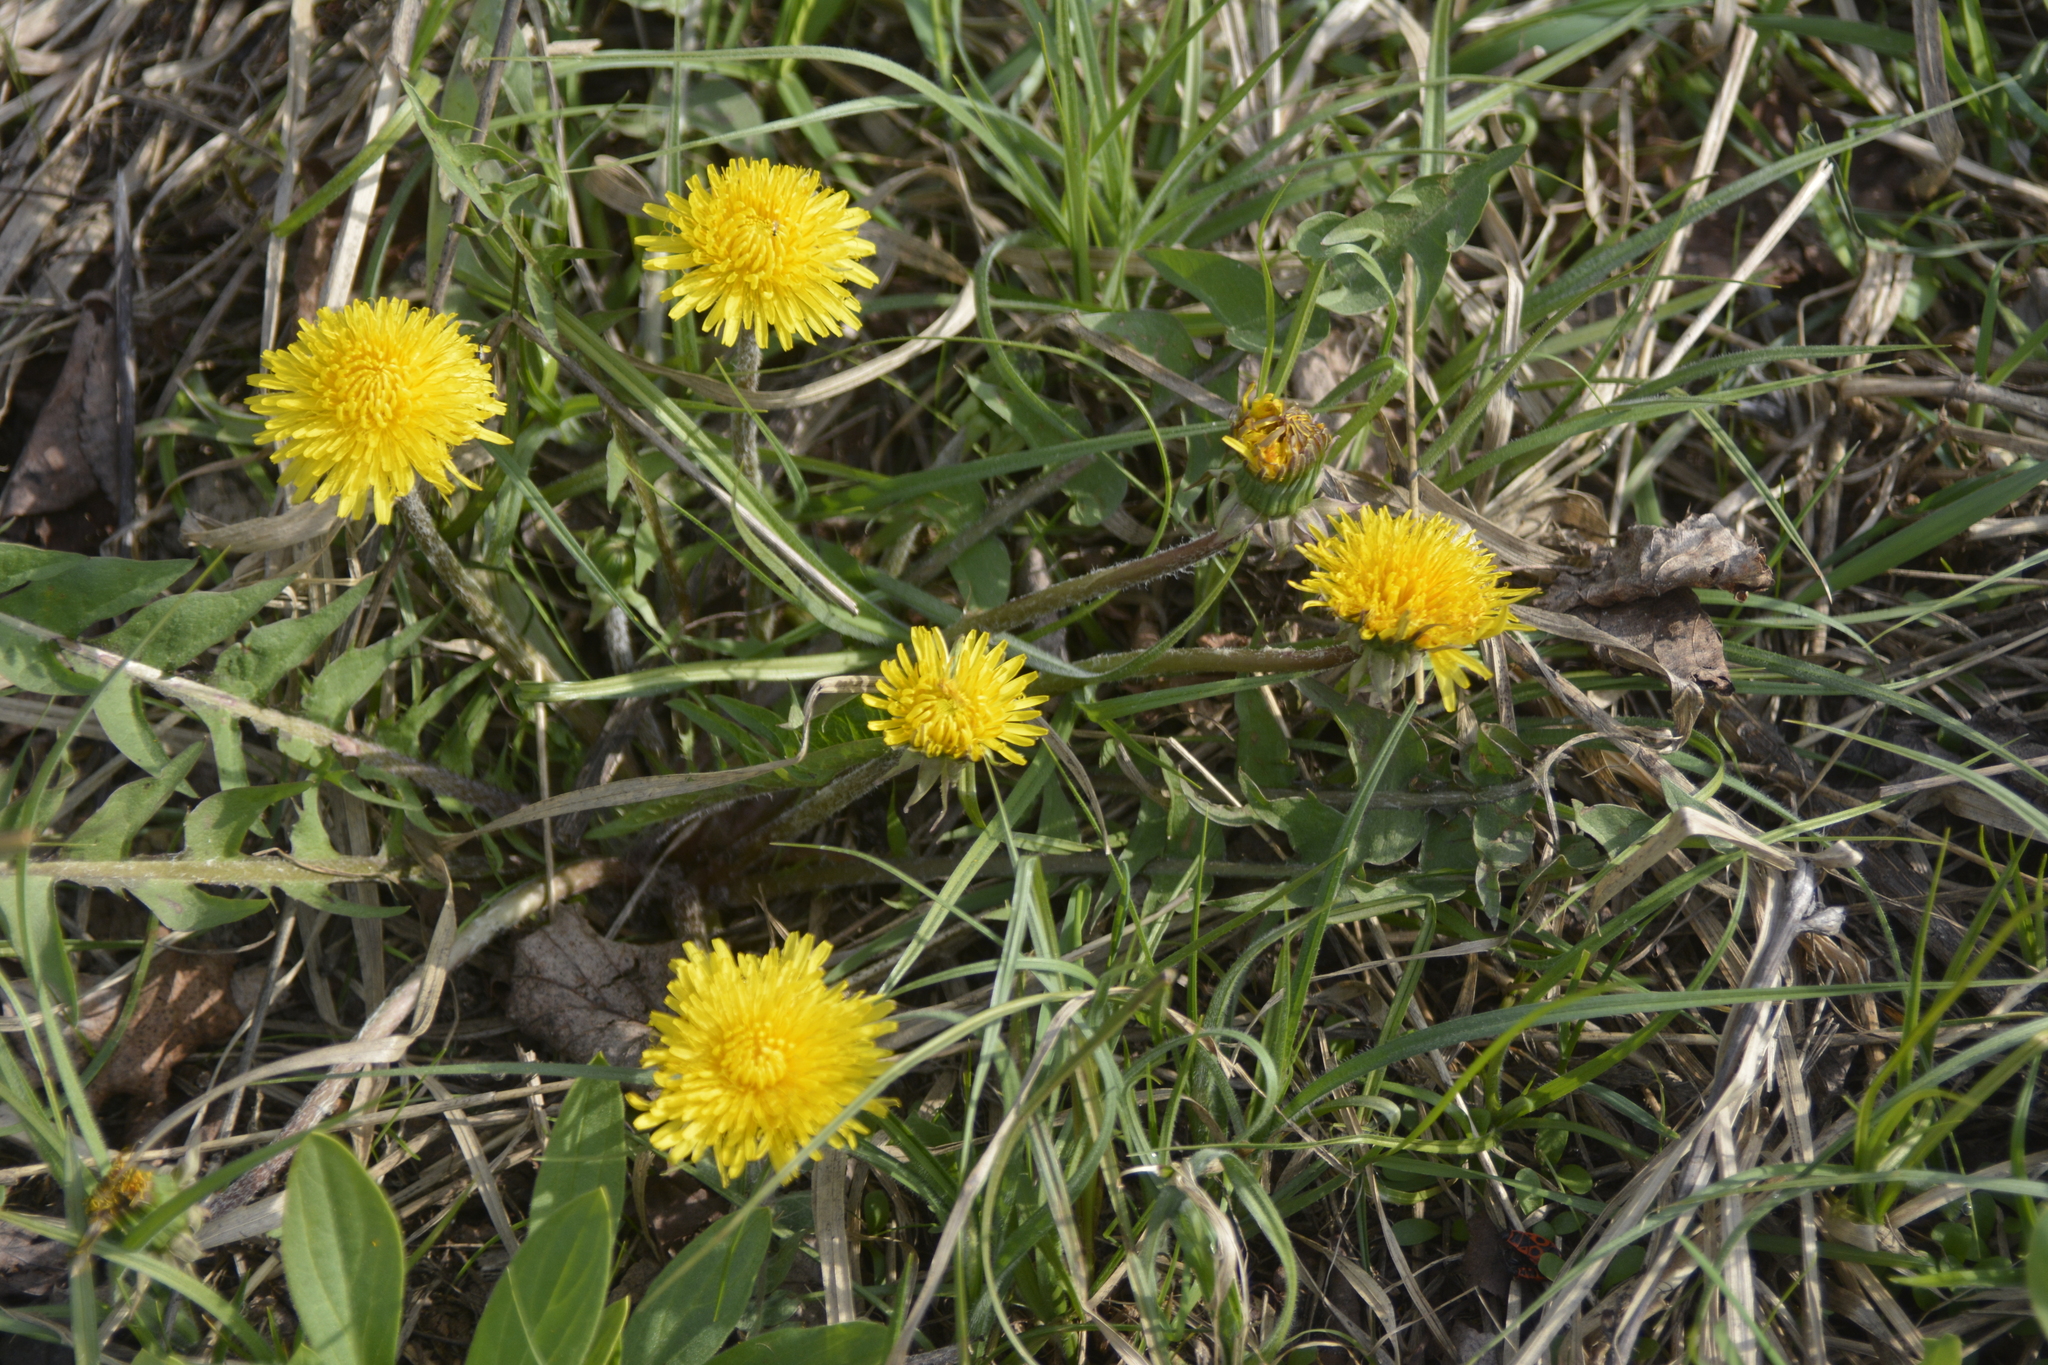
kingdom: Plantae
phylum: Tracheophyta
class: Magnoliopsida
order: Asterales
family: Asteraceae
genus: Taraxacum
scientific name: Taraxacum officinale
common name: Common dandelion
